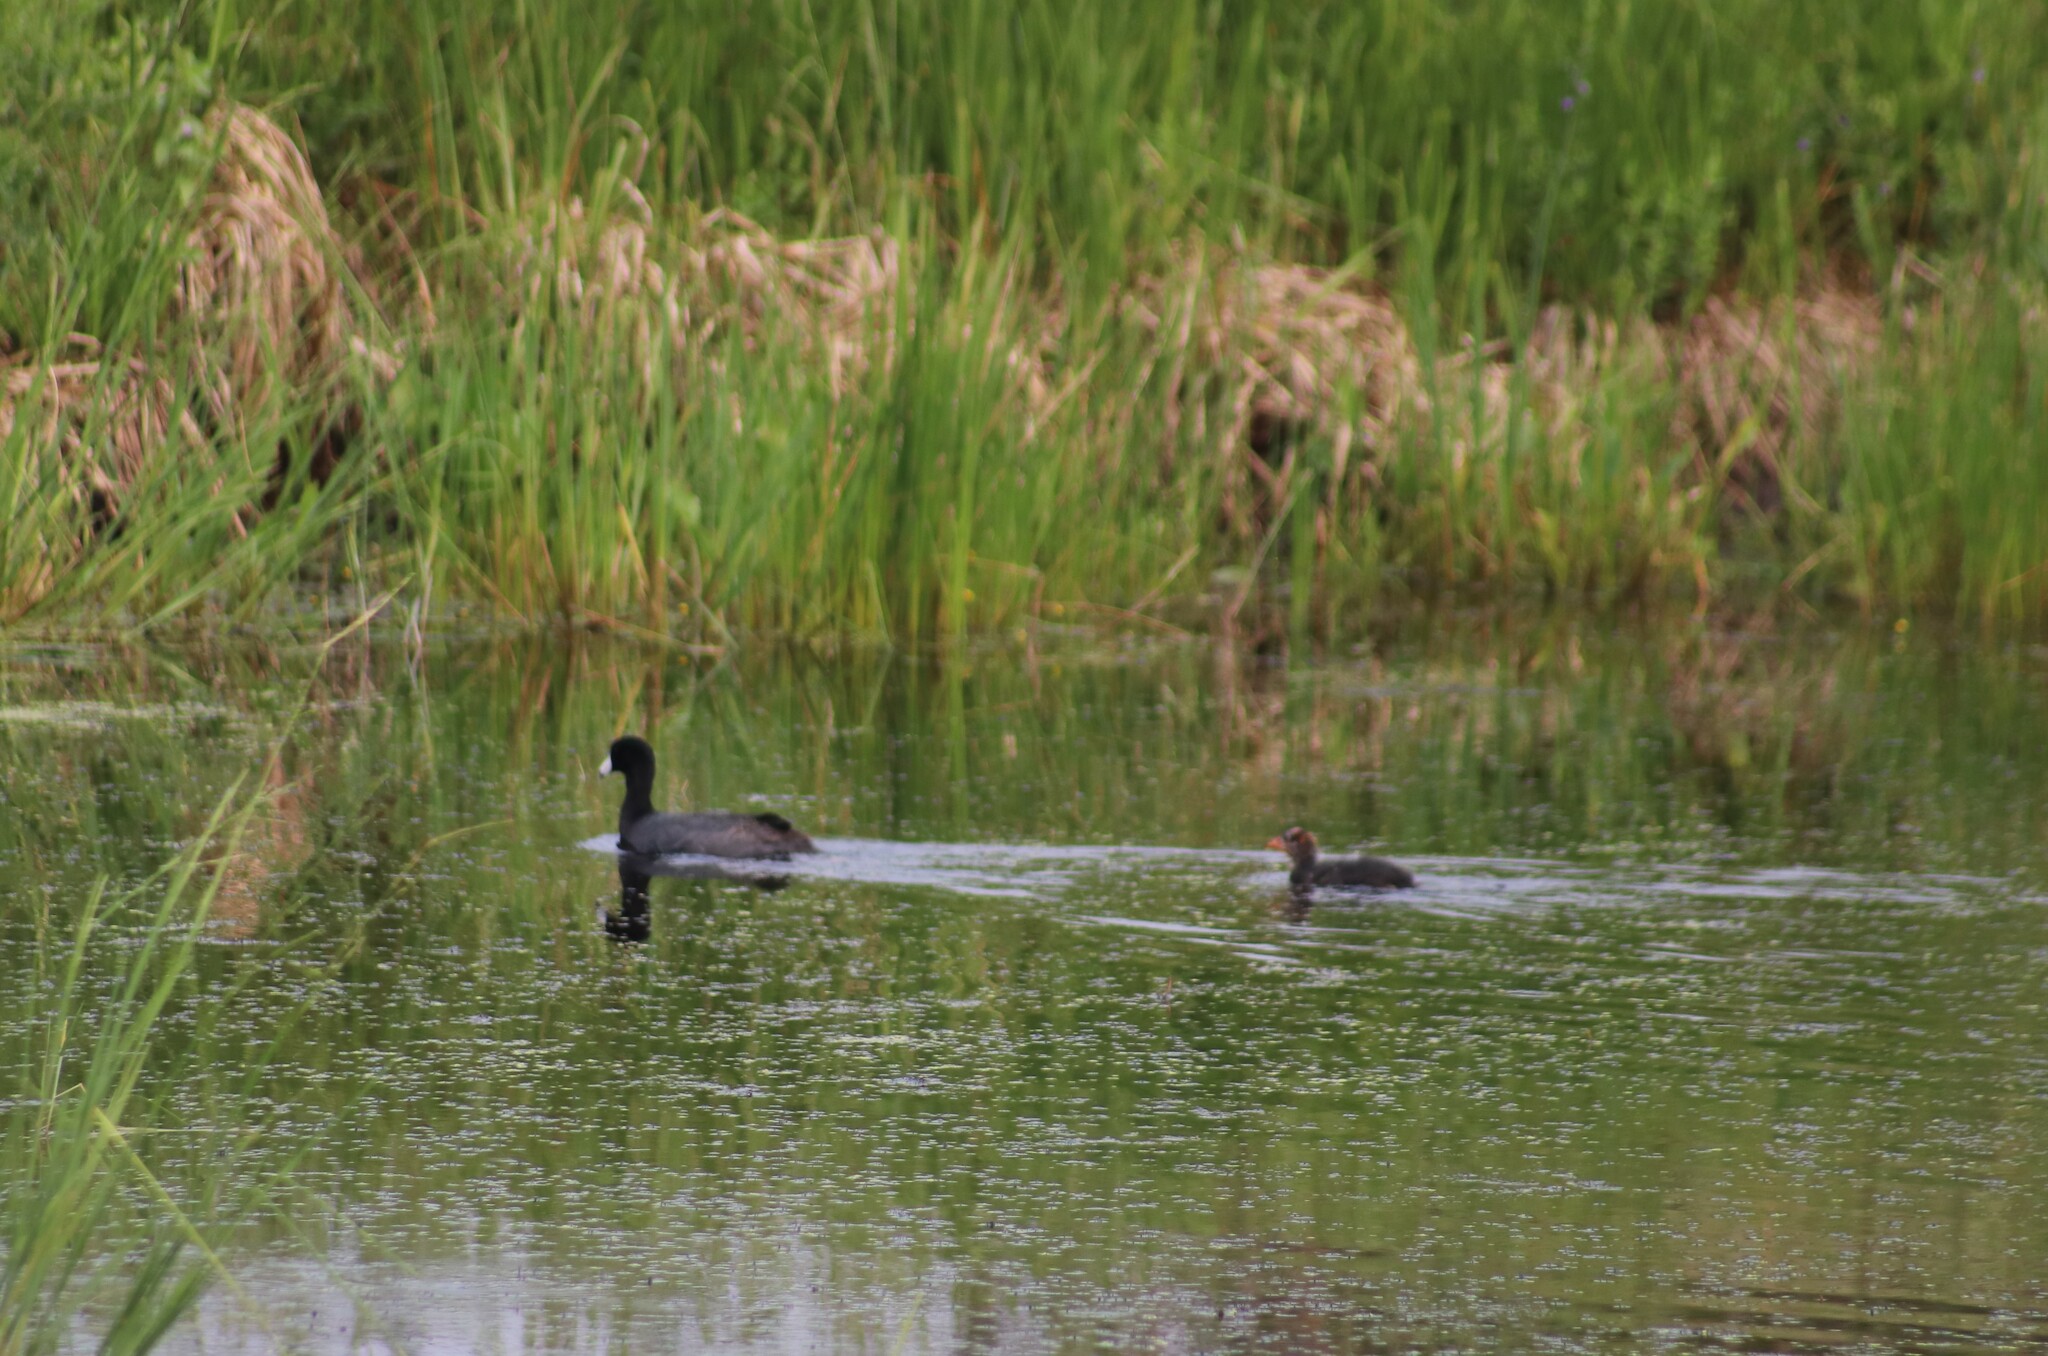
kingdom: Animalia
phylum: Chordata
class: Aves
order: Gruiformes
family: Rallidae
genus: Fulica
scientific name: Fulica americana
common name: American coot
